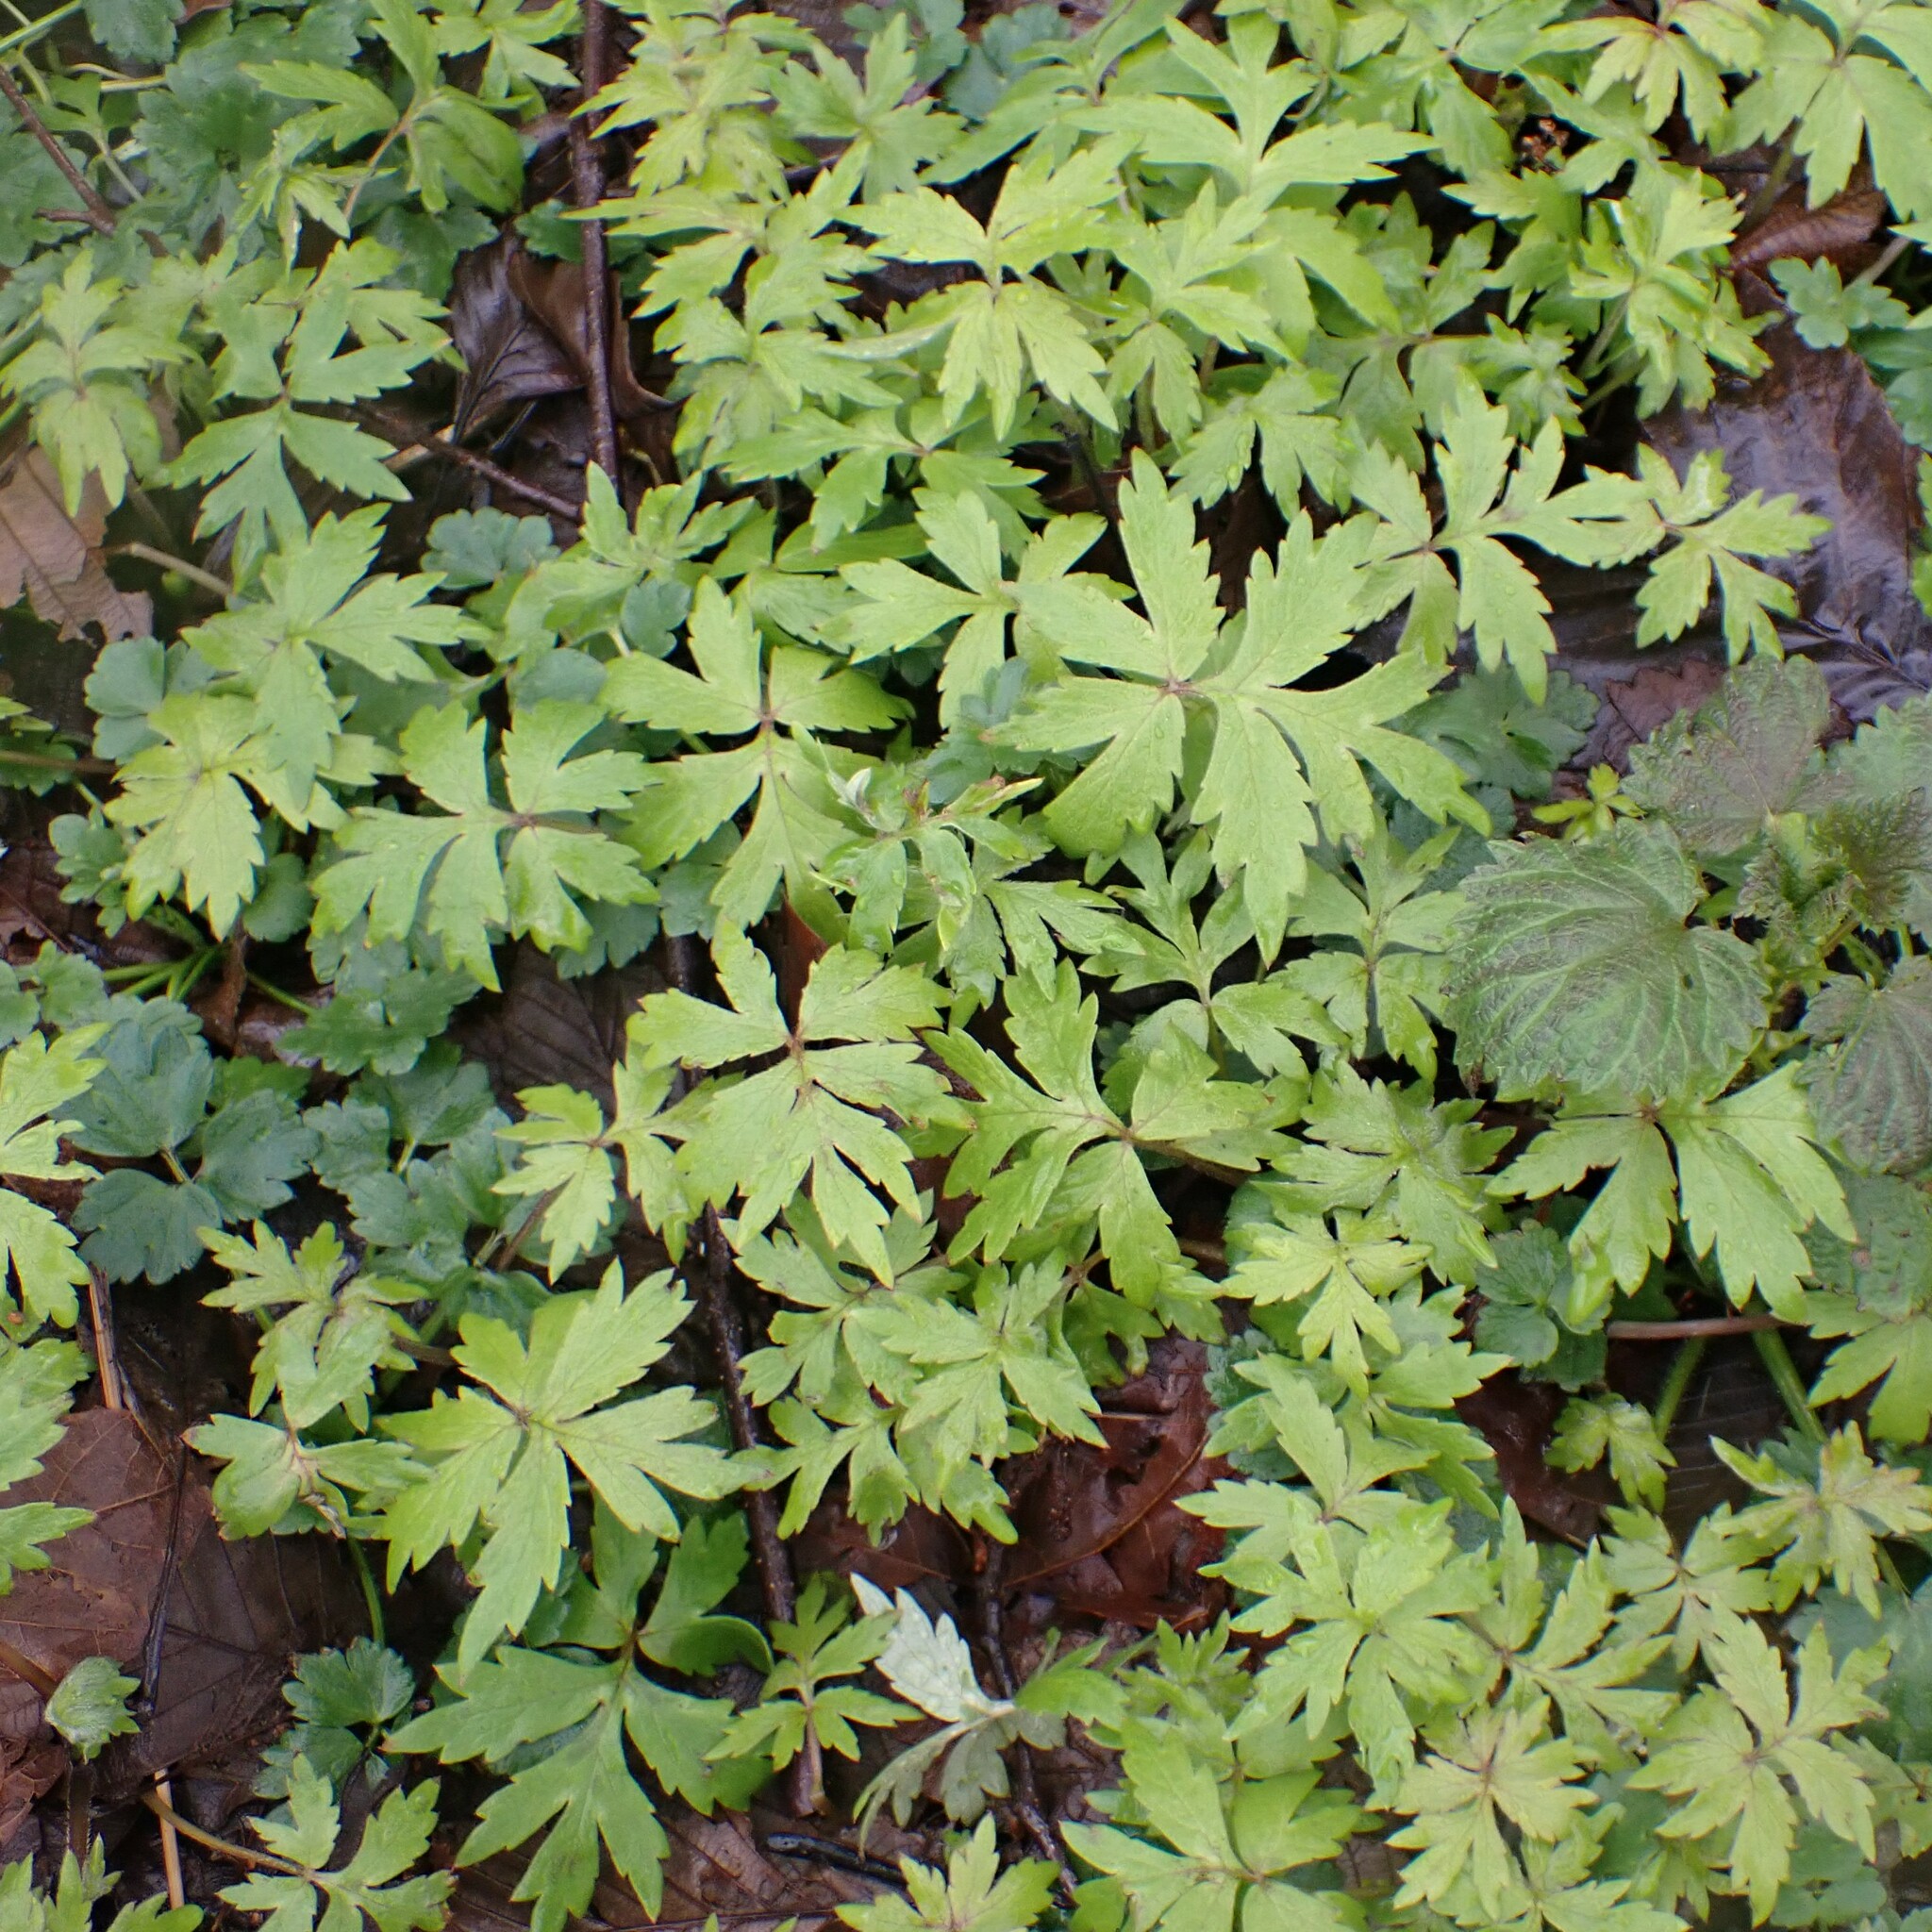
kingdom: Plantae
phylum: Tracheophyta
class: Magnoliopsida
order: Boraginales
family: Hydrophyllaceae
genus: Hydrophyllum
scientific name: Hydrophyllum tenuipes
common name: Pacific waterleaf
